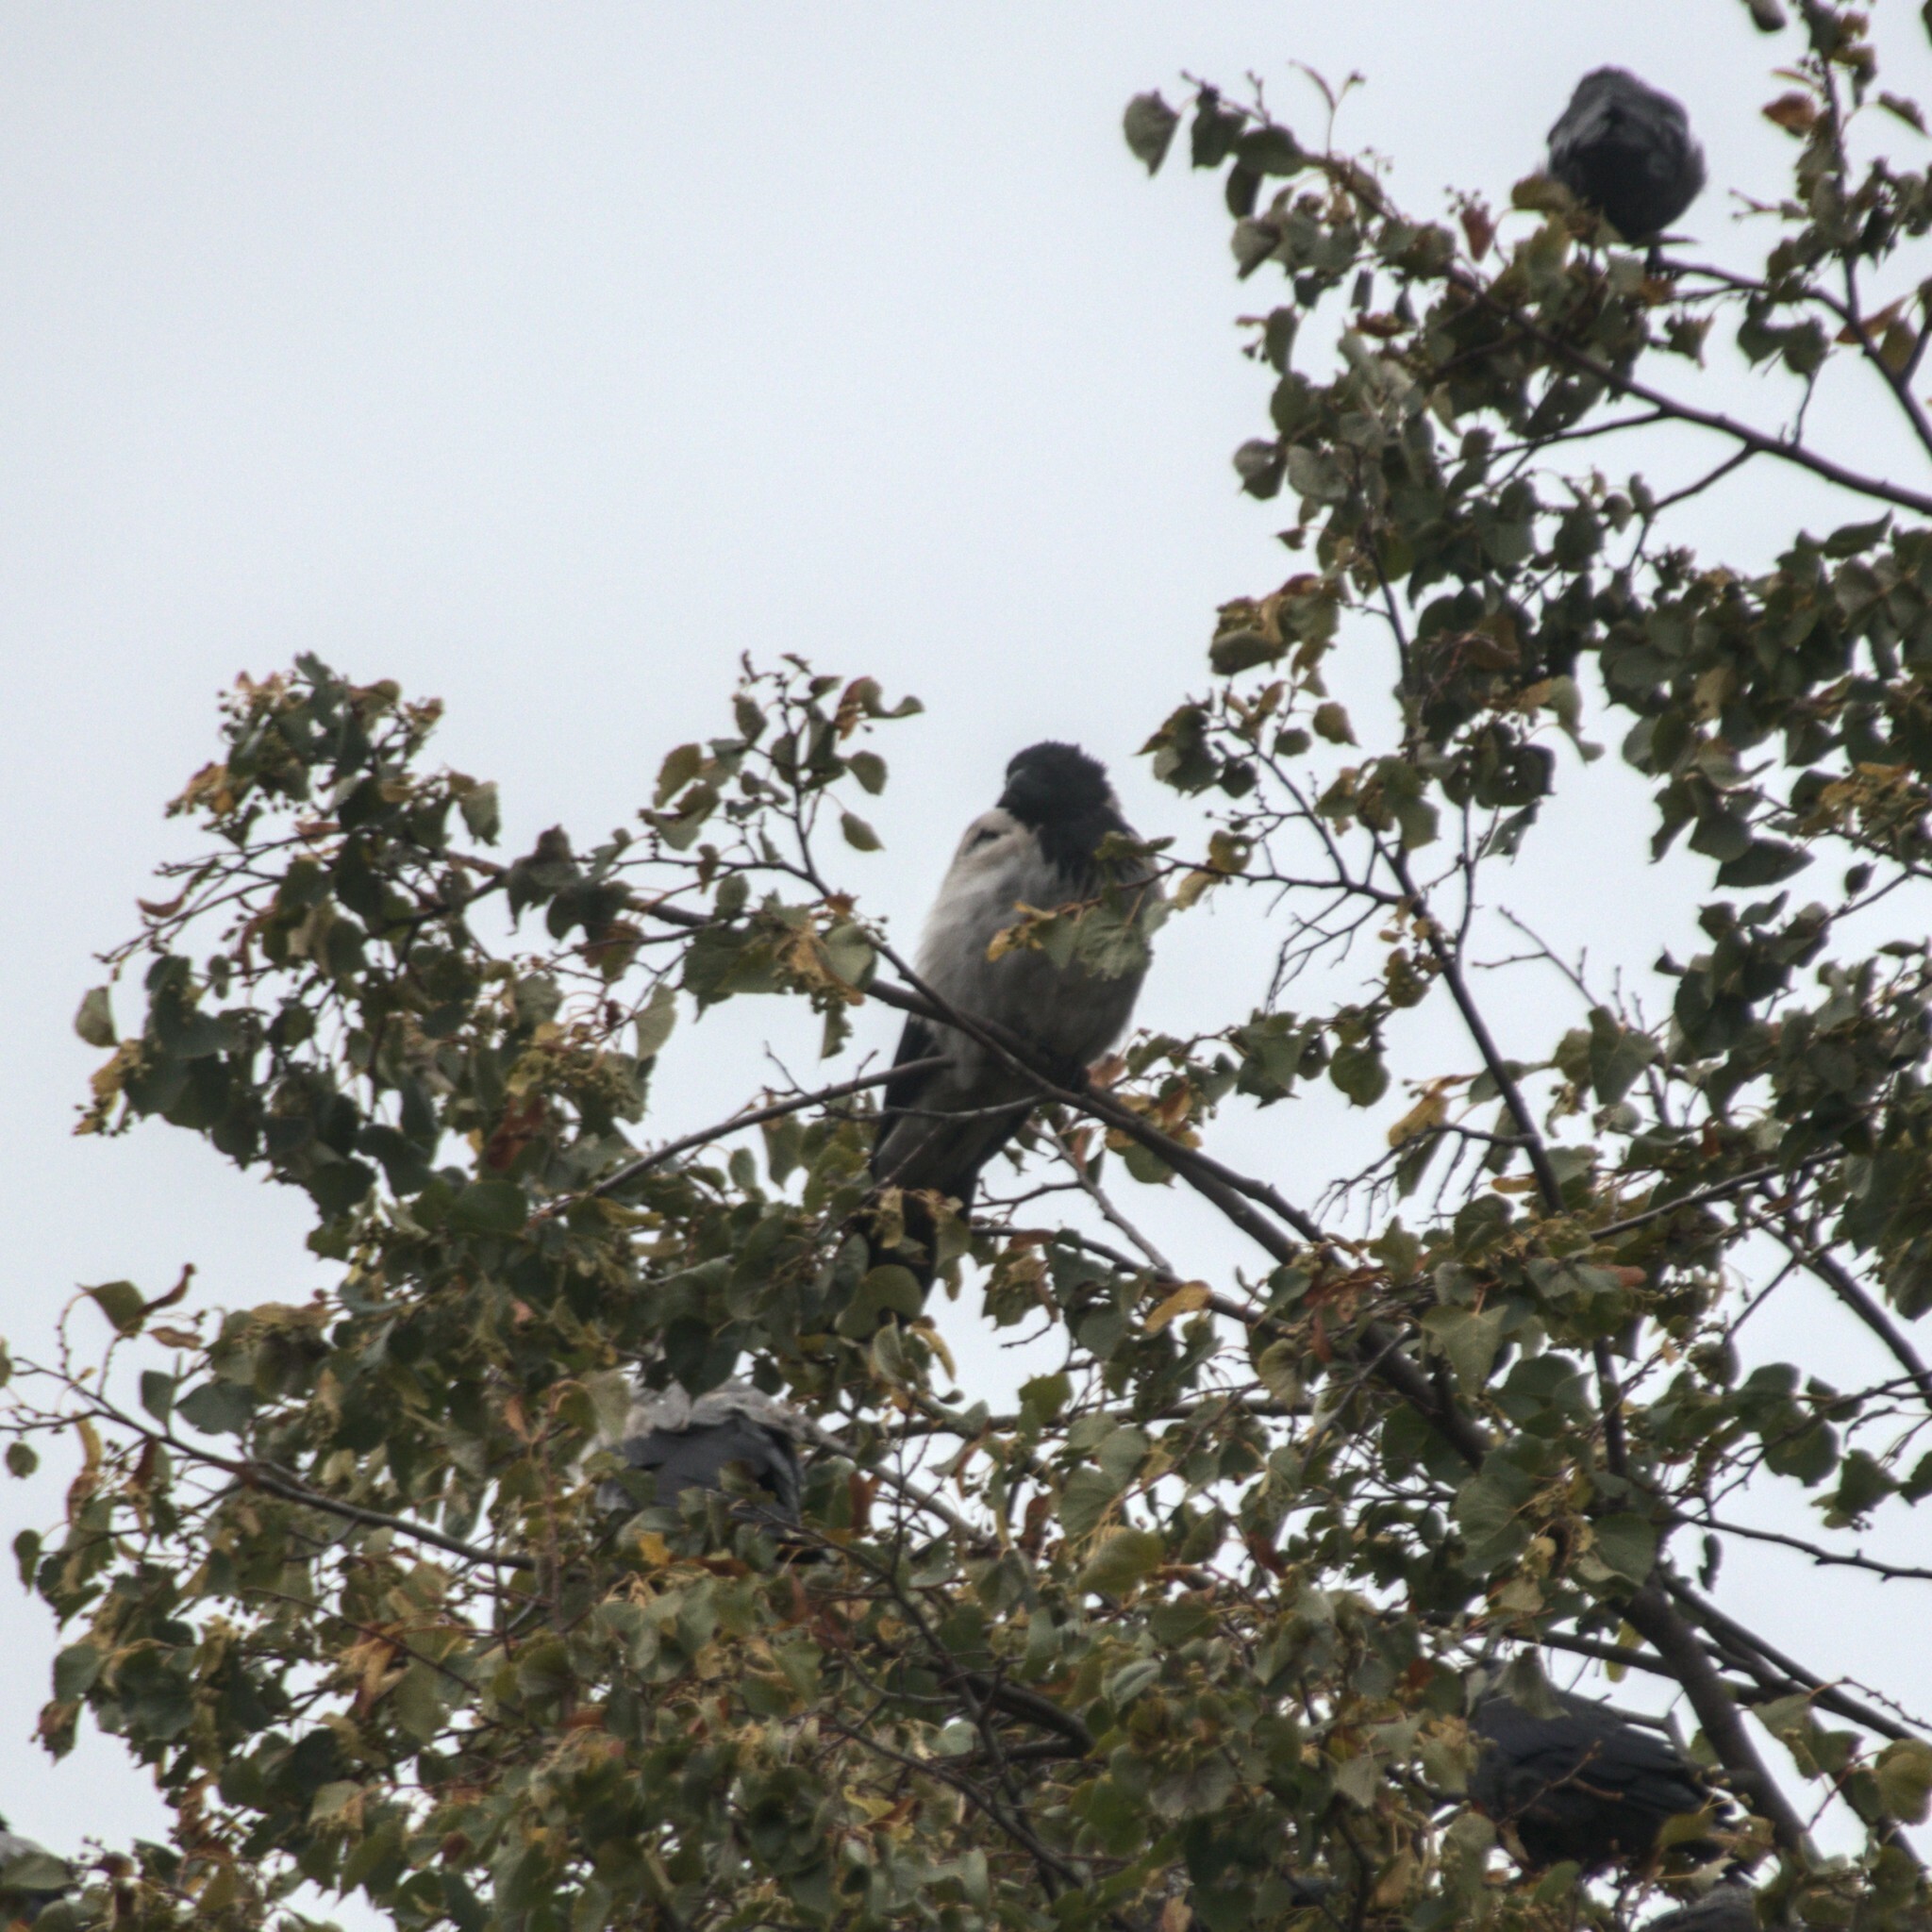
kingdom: Animalia
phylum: Chordata
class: Aves
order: Passeriformes
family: Corvidae
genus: Corvus
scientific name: Corvus cornix
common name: Hooded crow
